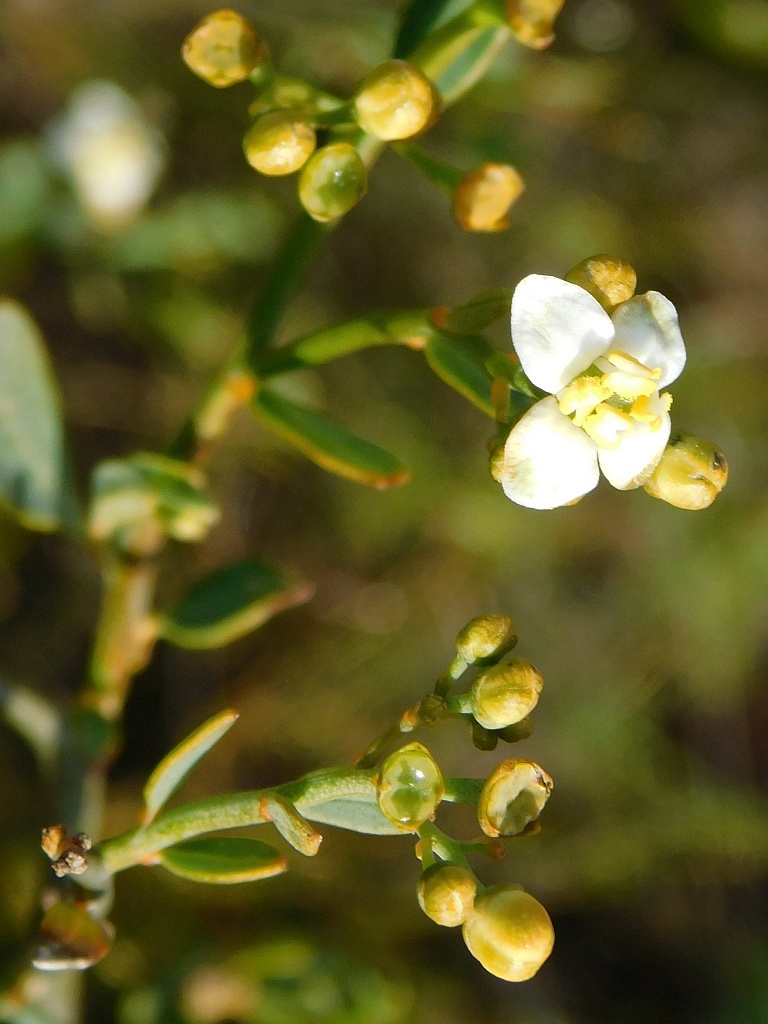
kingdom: Plantae
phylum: Tracheophyta
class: Magnoliopsida
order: Solanales
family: Montiniaceae
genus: Montinia
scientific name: Montinia caryophyllacea
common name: Wild clove-bush
